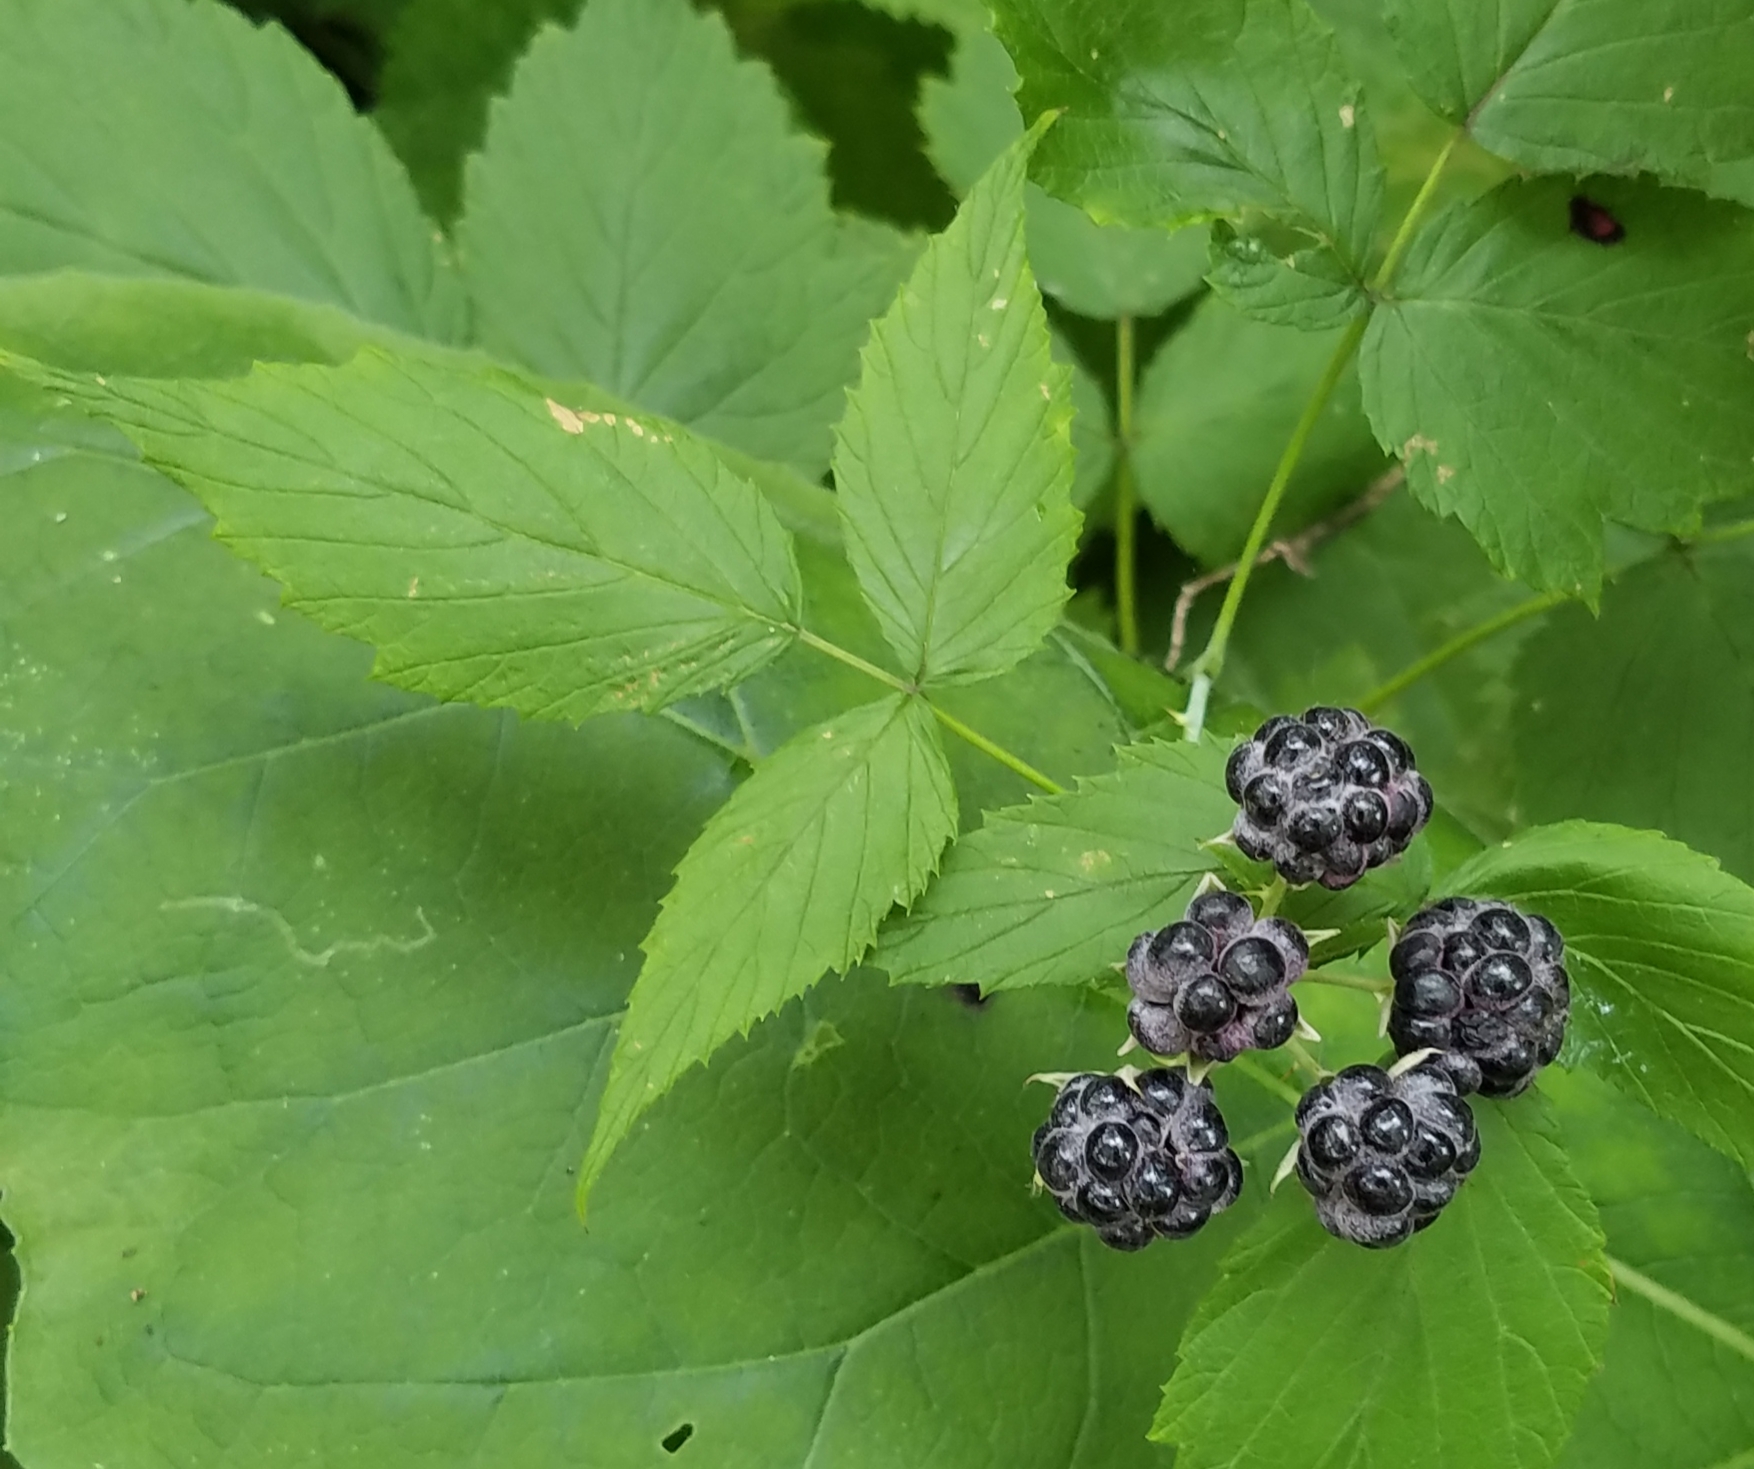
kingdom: Plantae
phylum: Tracheophyta
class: Magnoliopsida
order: Rosales
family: Rosaceae
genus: Rubus
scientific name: Rubus occidentalis
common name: Black raspberry
